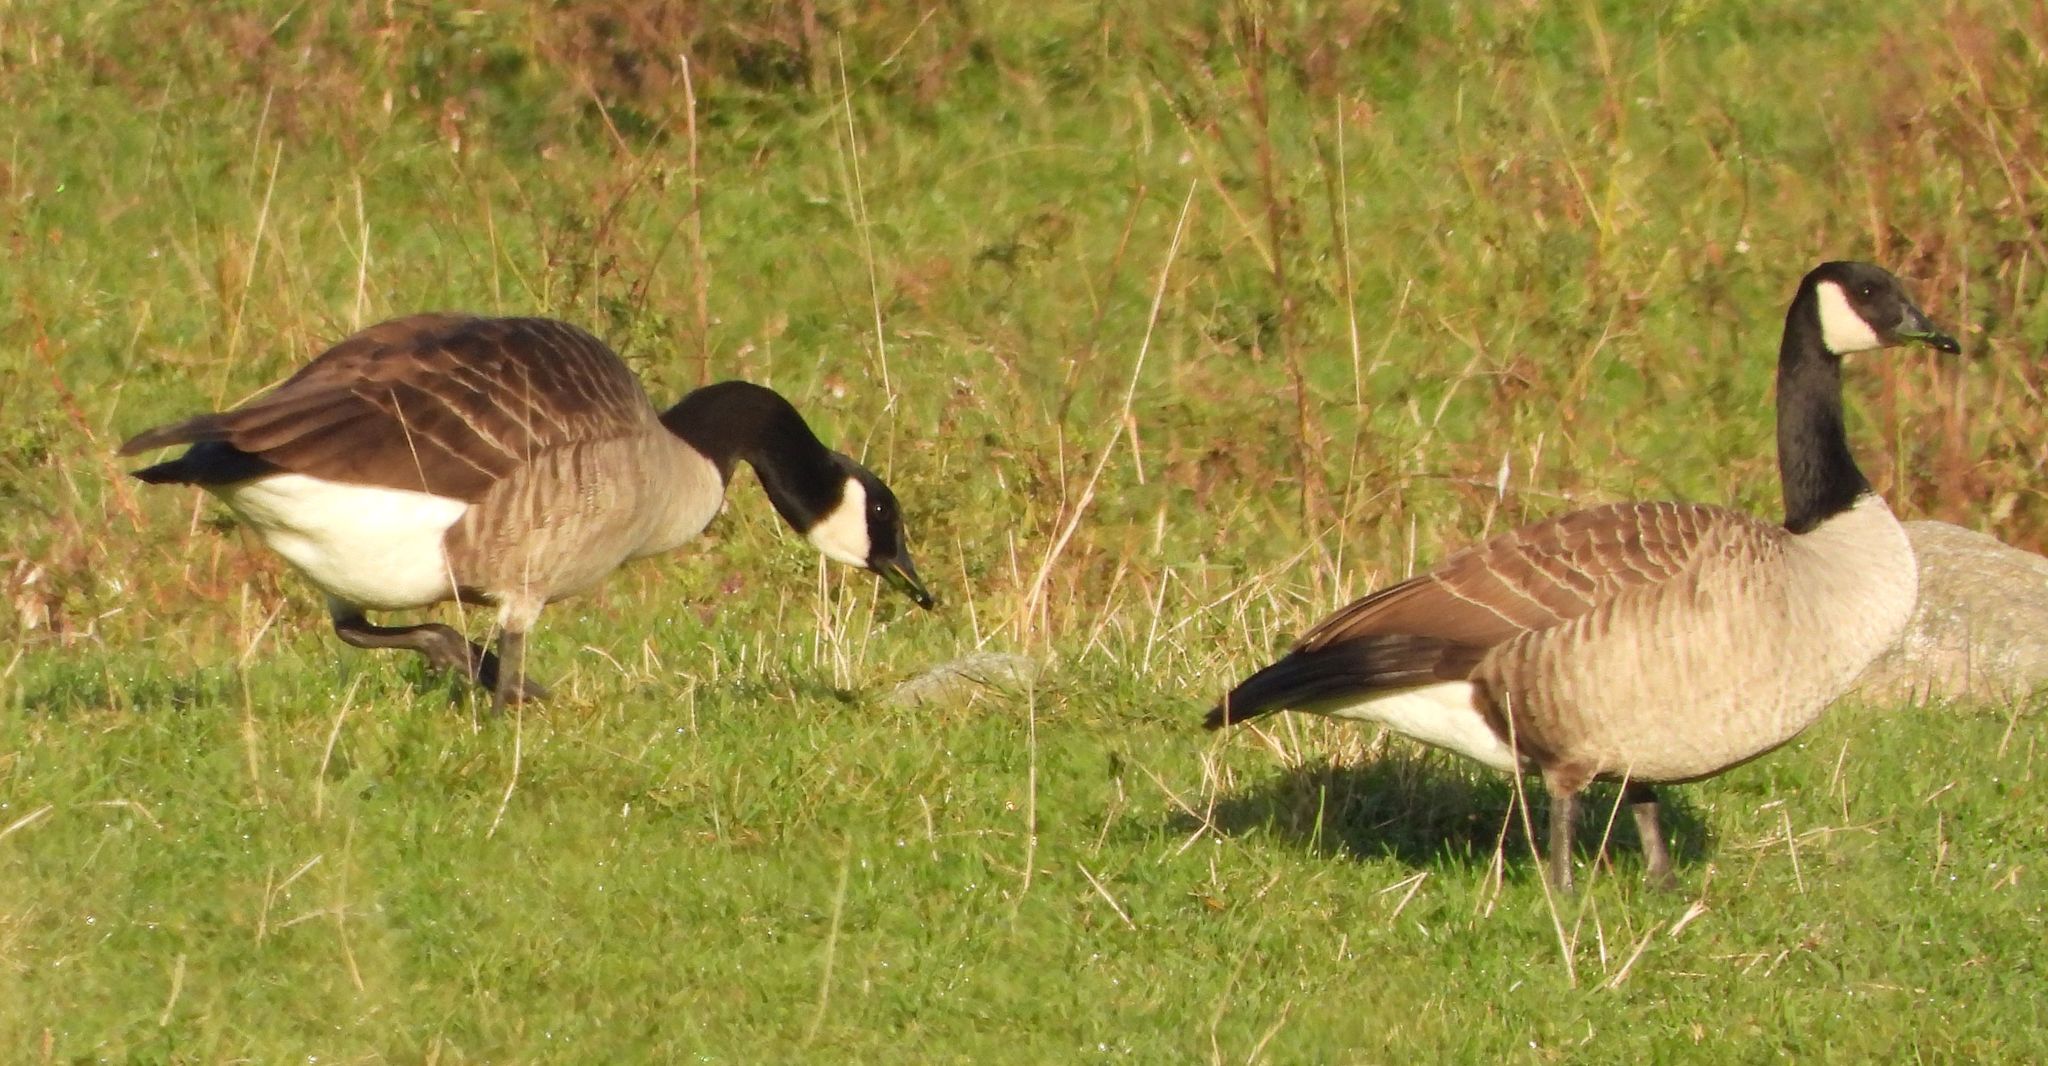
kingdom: Animalia
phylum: Chordata
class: Aves
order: Anseriformes
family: Anatidae
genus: Branta
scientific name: Branta canadensis
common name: Canada goose
